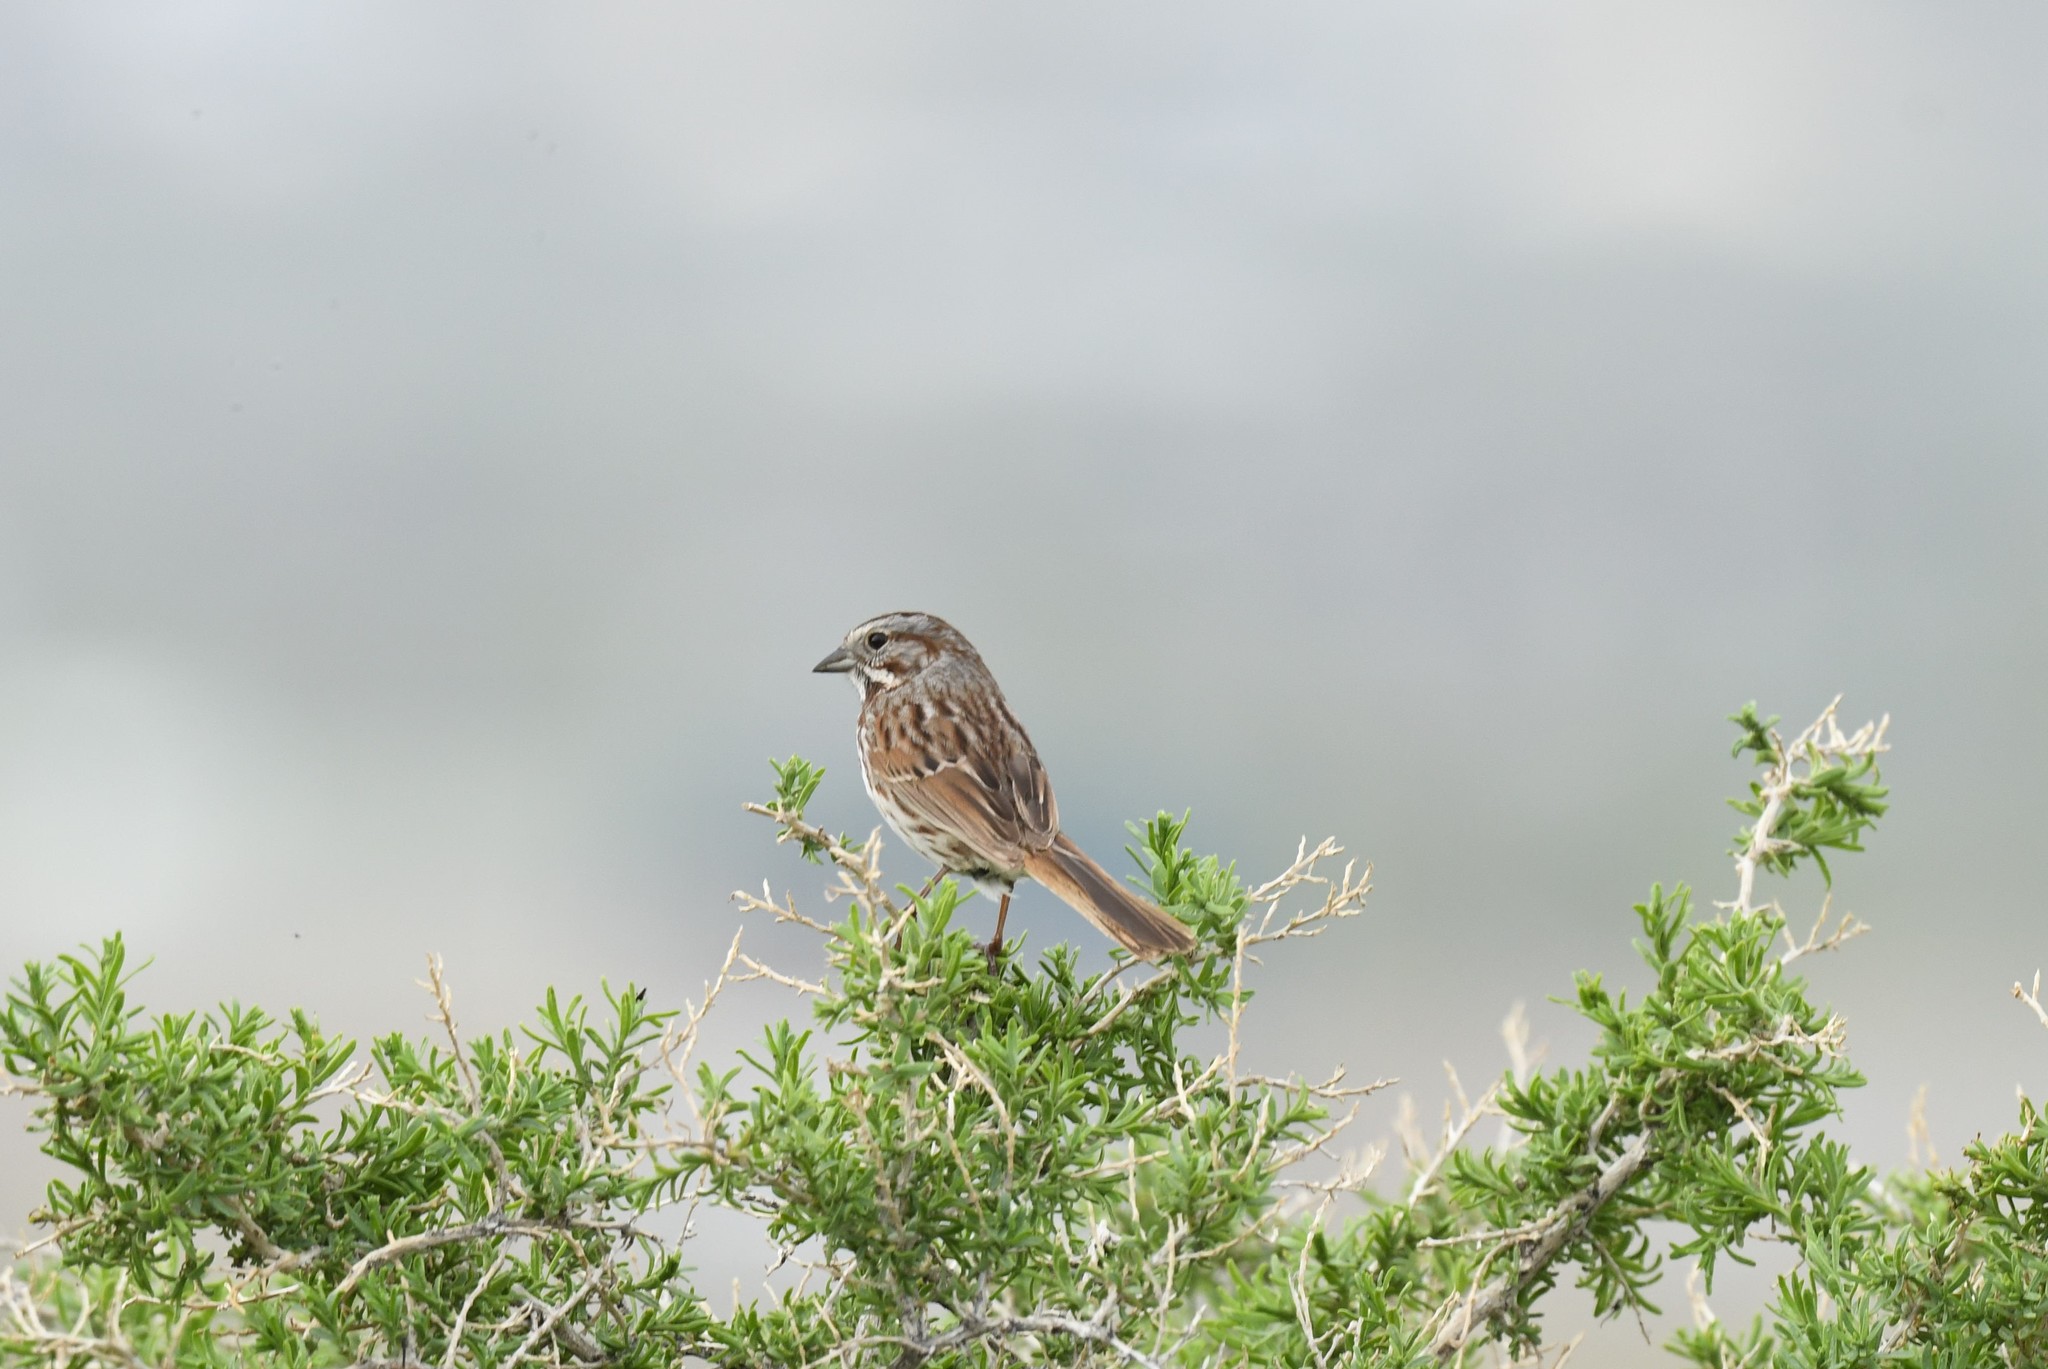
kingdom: Animalia
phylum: Chordata
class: Aves
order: Passeriformes
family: Passerellidae
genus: Melospiza
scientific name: Melospiza melodia
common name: Song sparrow
